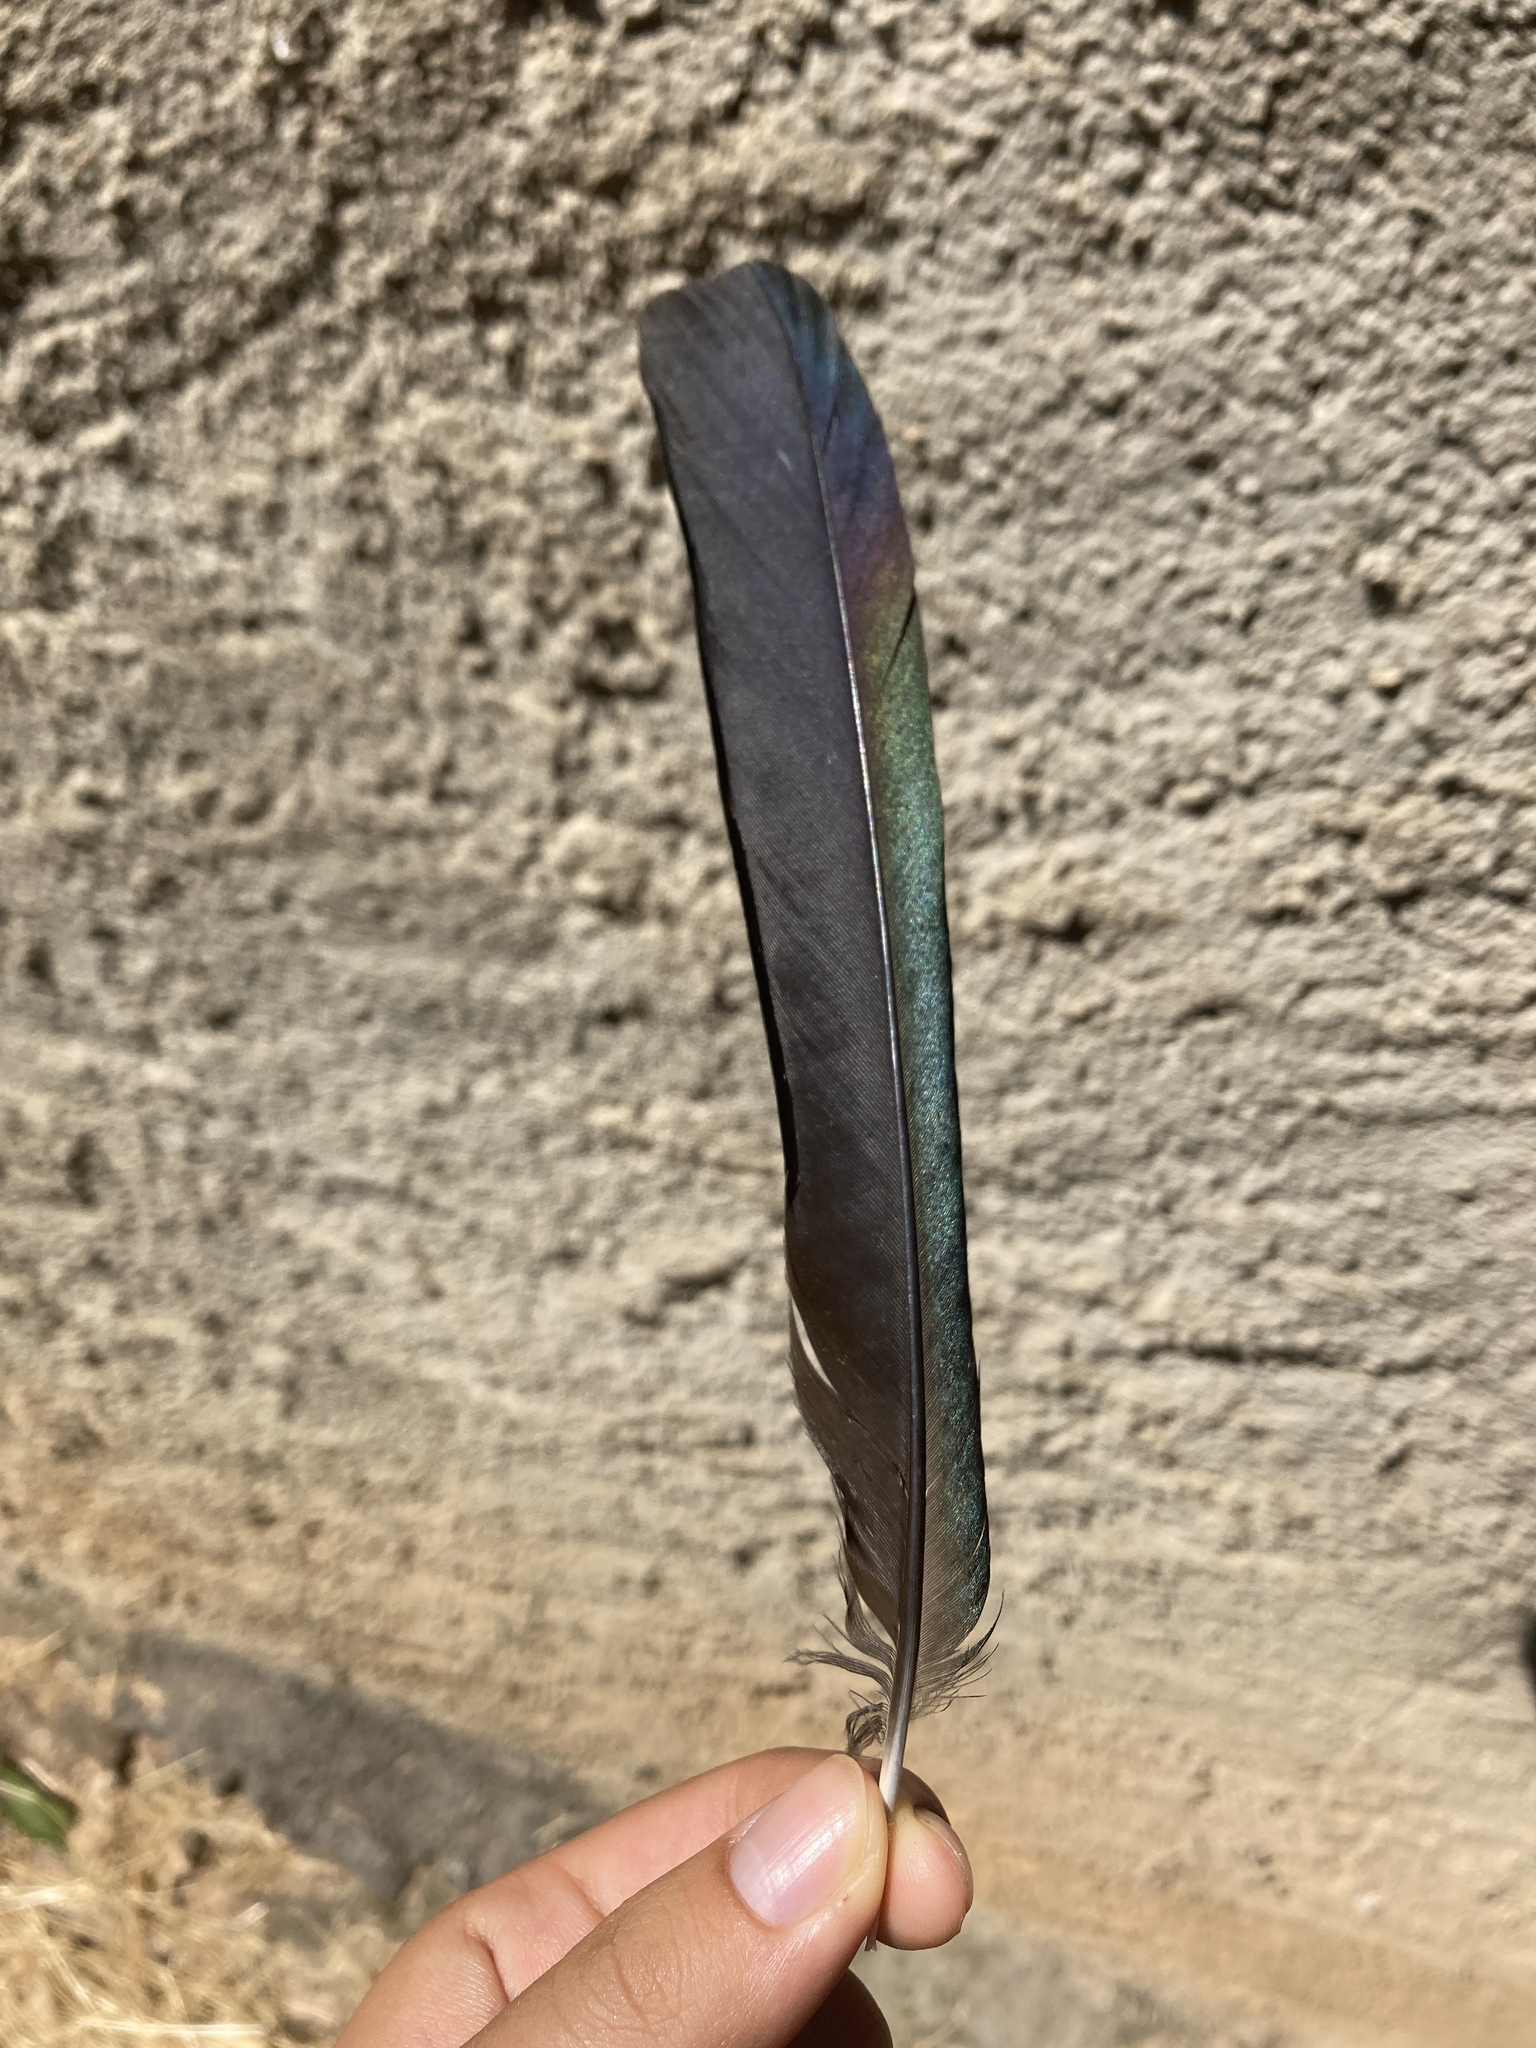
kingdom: Animalia
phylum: Chordata
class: Aves
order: Passeriformes
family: Corvidae
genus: Pica
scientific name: Pica pica
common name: Eurasian magpie
